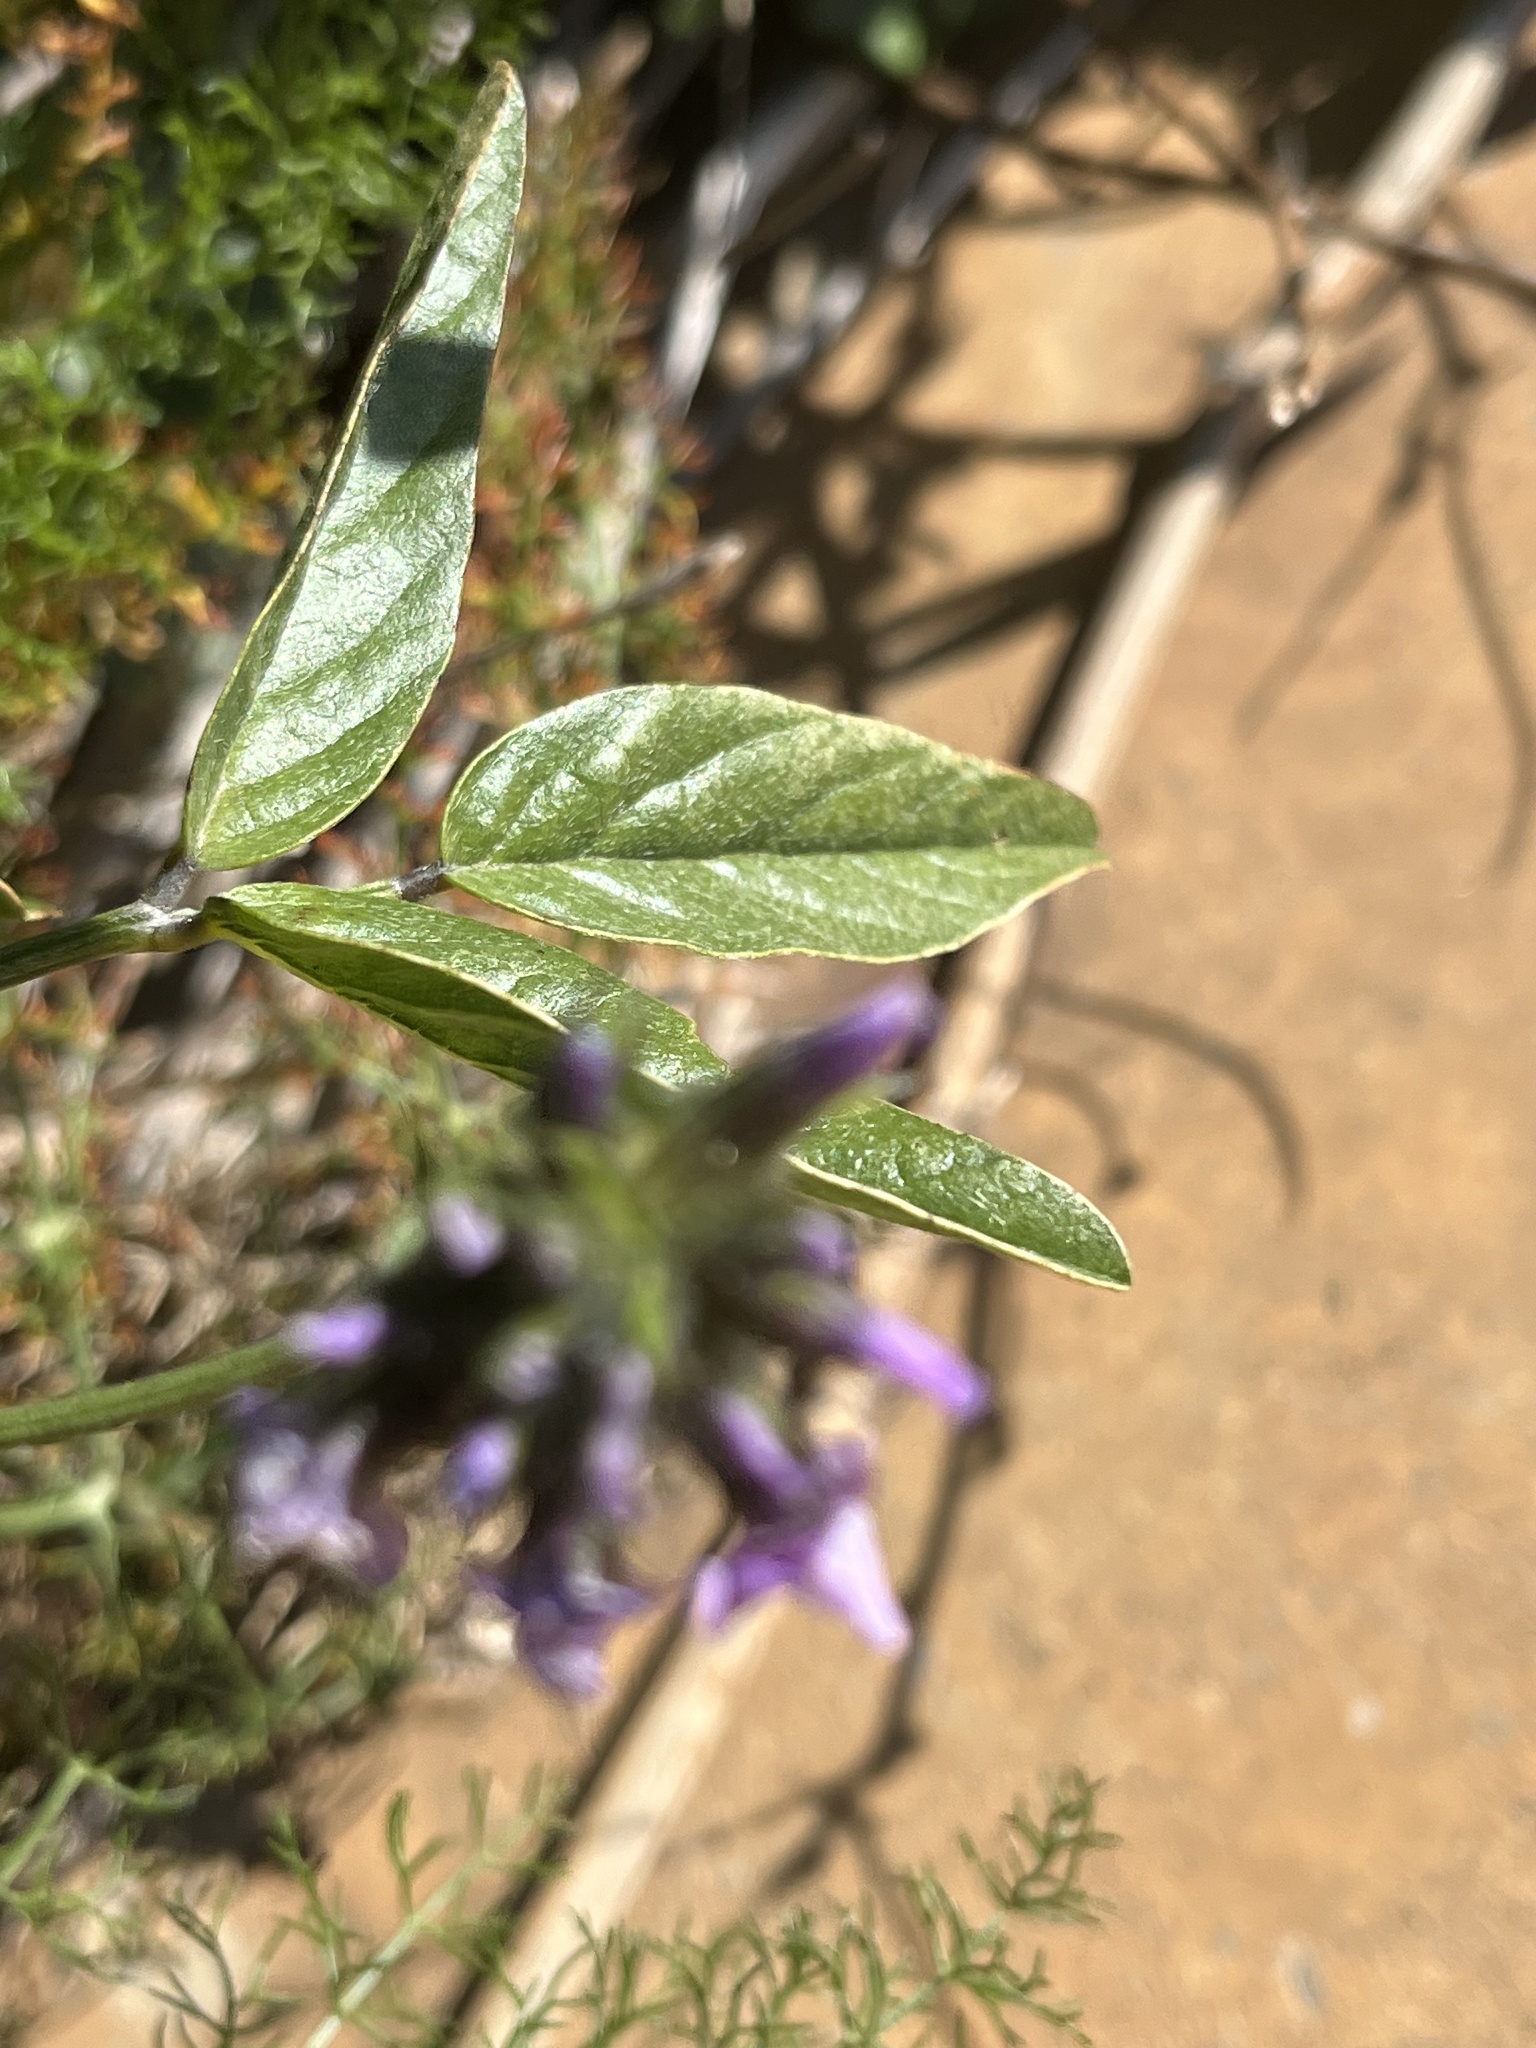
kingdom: Plantae
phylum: Tracheophyta
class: Magnoliopsida
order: Fabales
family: Fabaceae
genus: Bituminaria
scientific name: Bituminaria bituminosa
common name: Arabian pea
